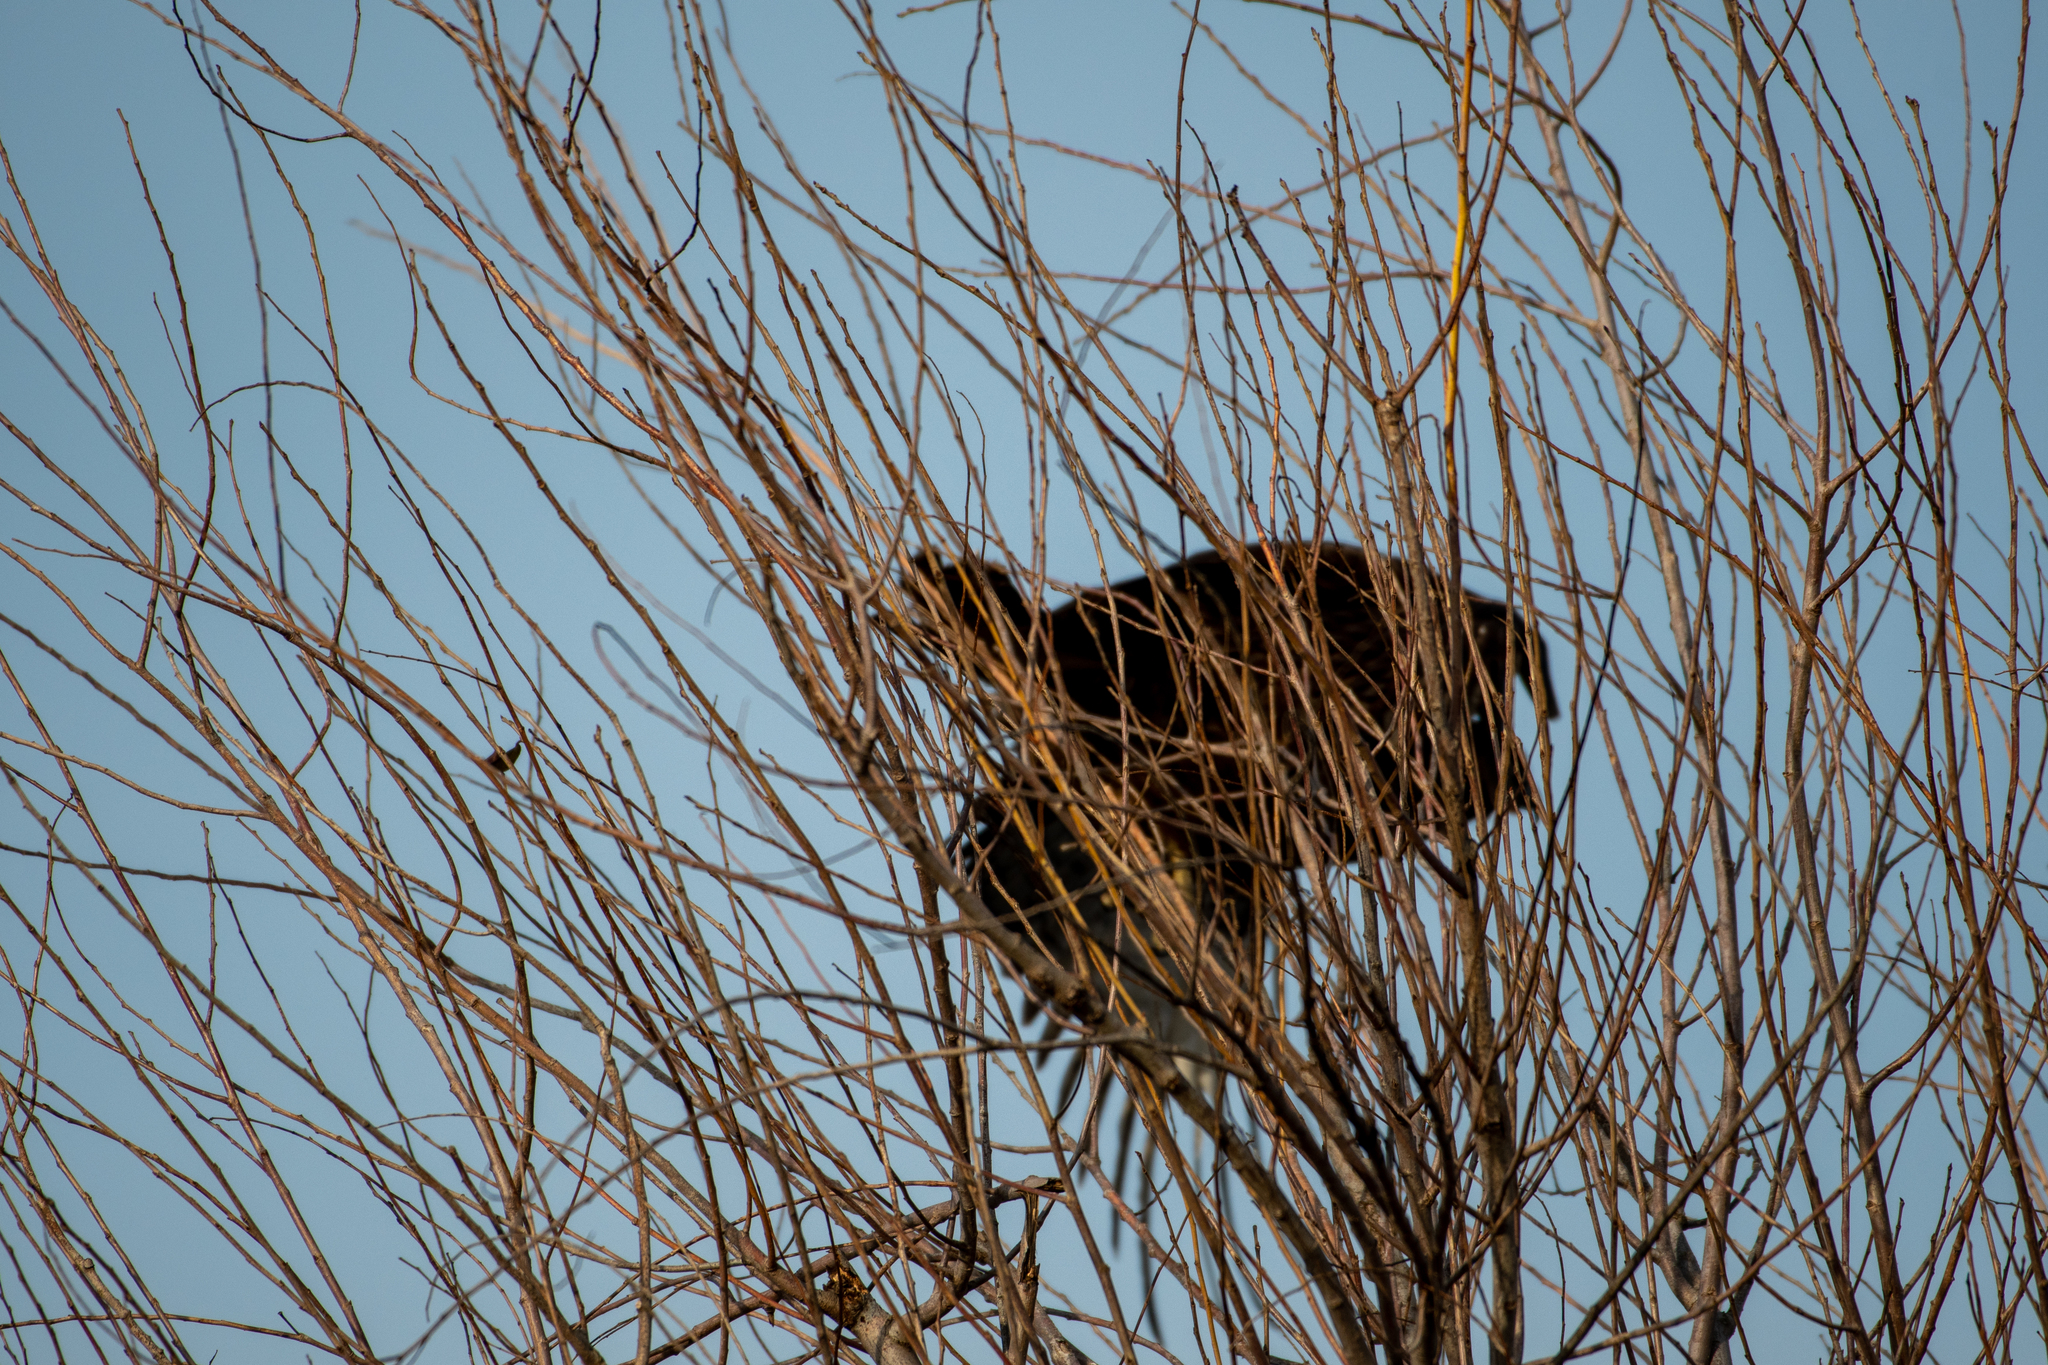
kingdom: Animalia
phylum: Chordata
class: Aves
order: Accipitriformes
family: Accipitridae
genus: Buteo
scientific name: Buteo jamaicensis
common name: Red-tailed hawk
